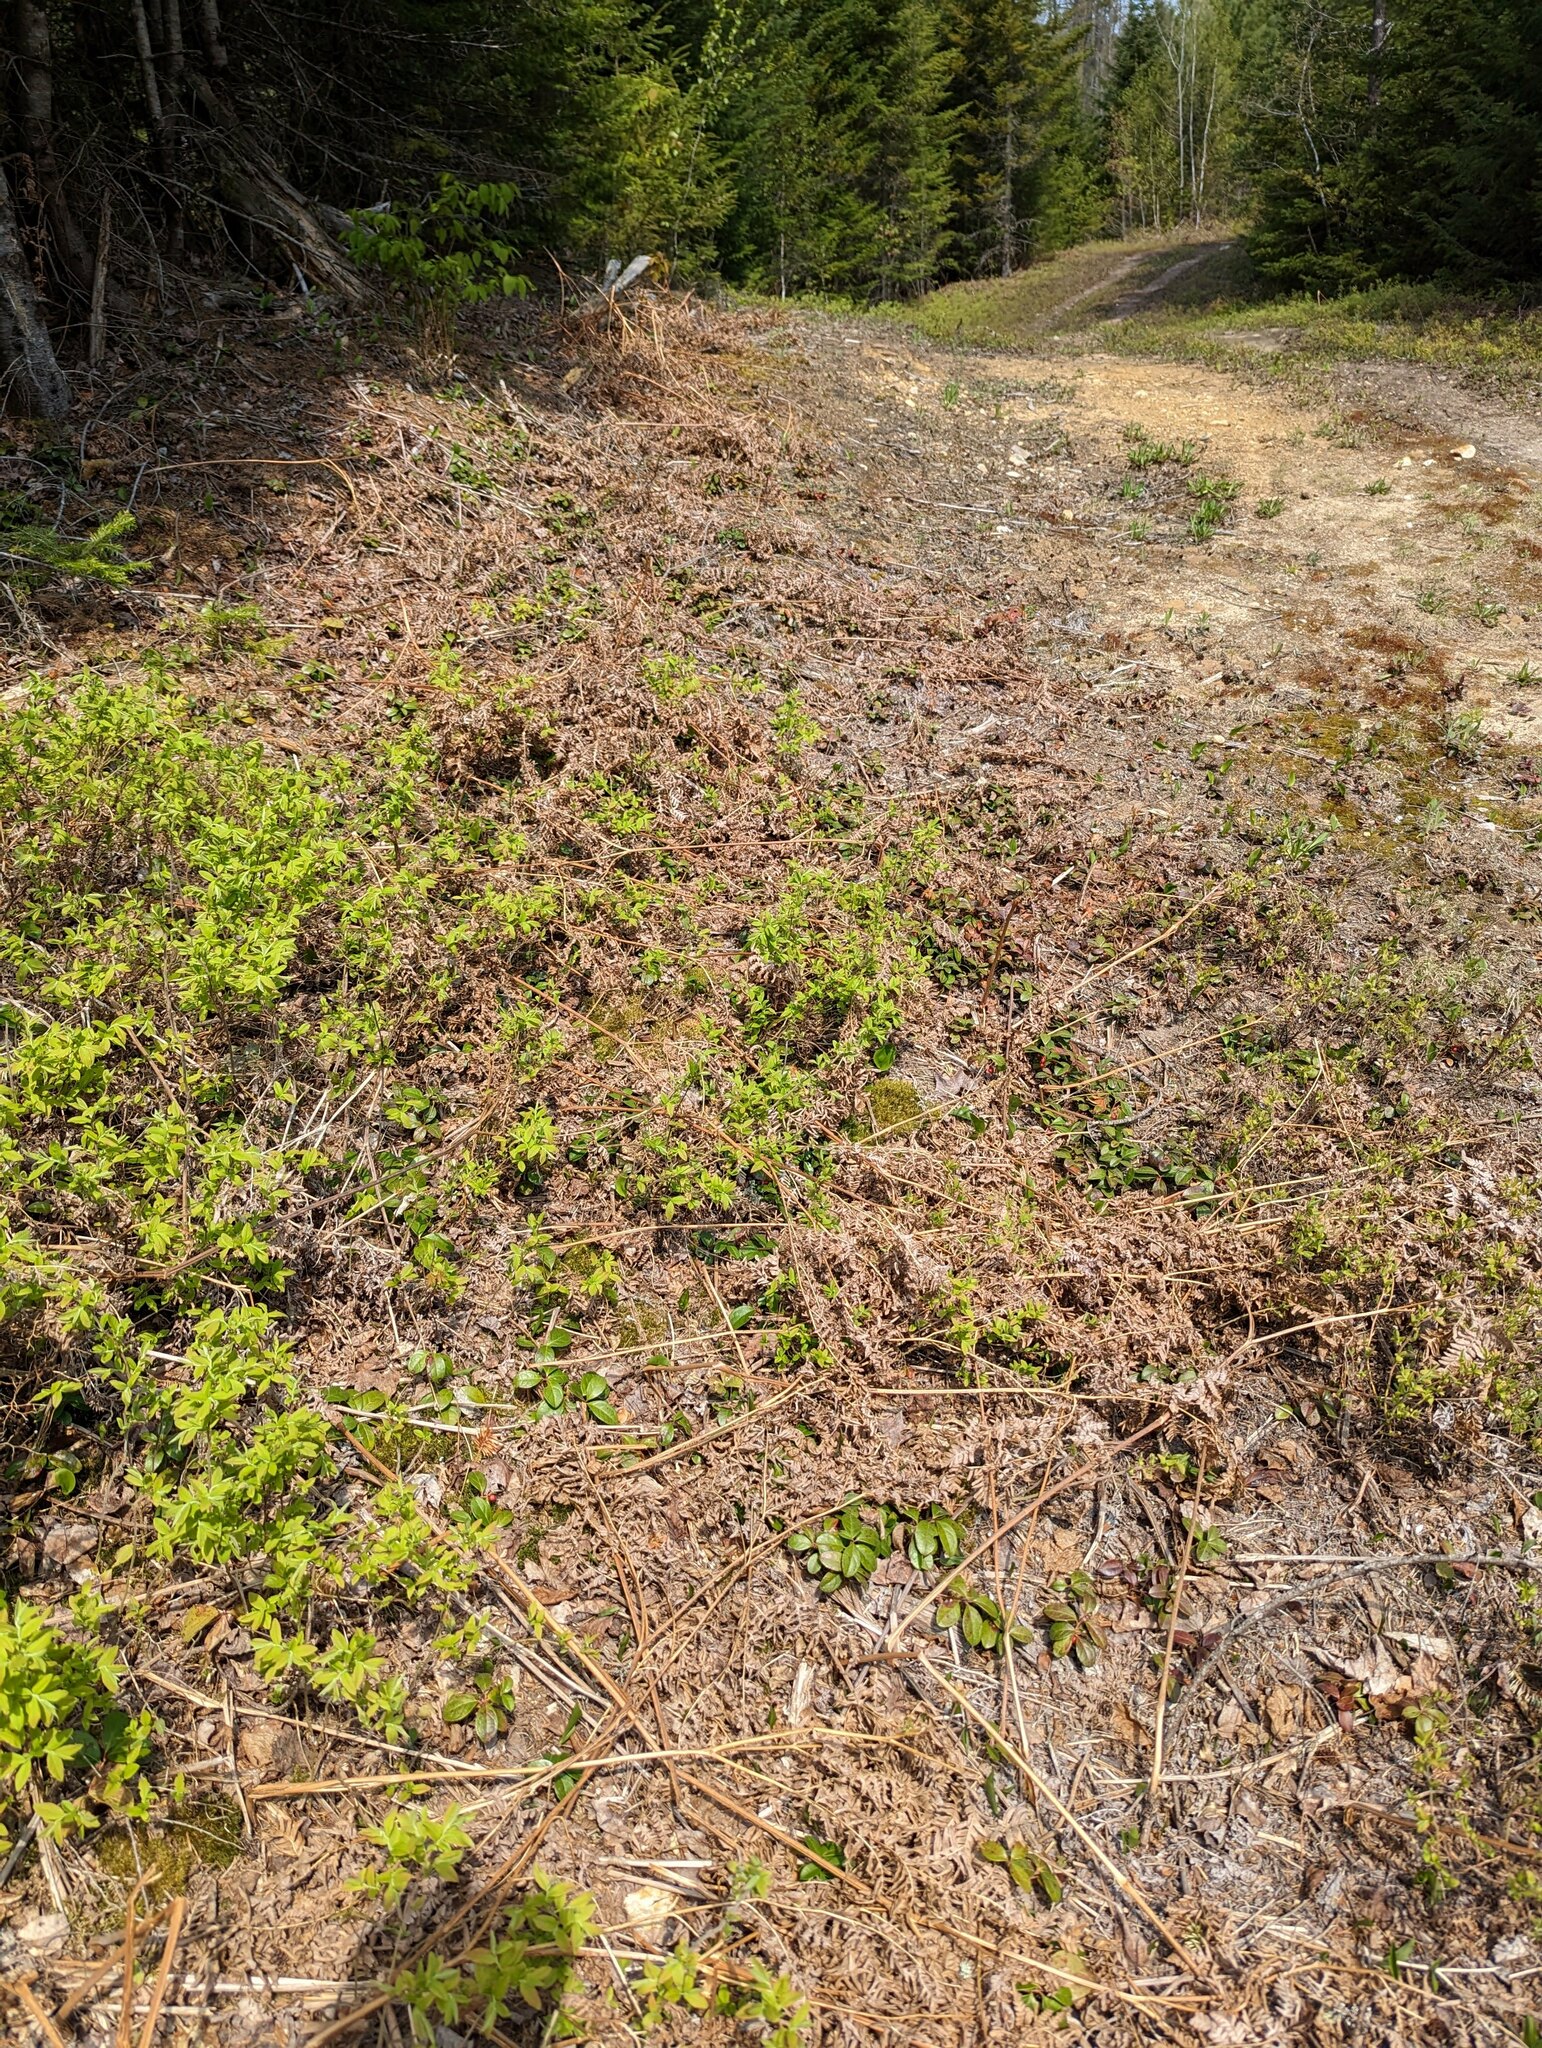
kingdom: Plantae
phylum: Tracheophyta
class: Polypodiopsida
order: Polypodiales
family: Dennstaedtiaceae
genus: Pteridium
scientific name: Pteridium aquilinum
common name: Bracken
